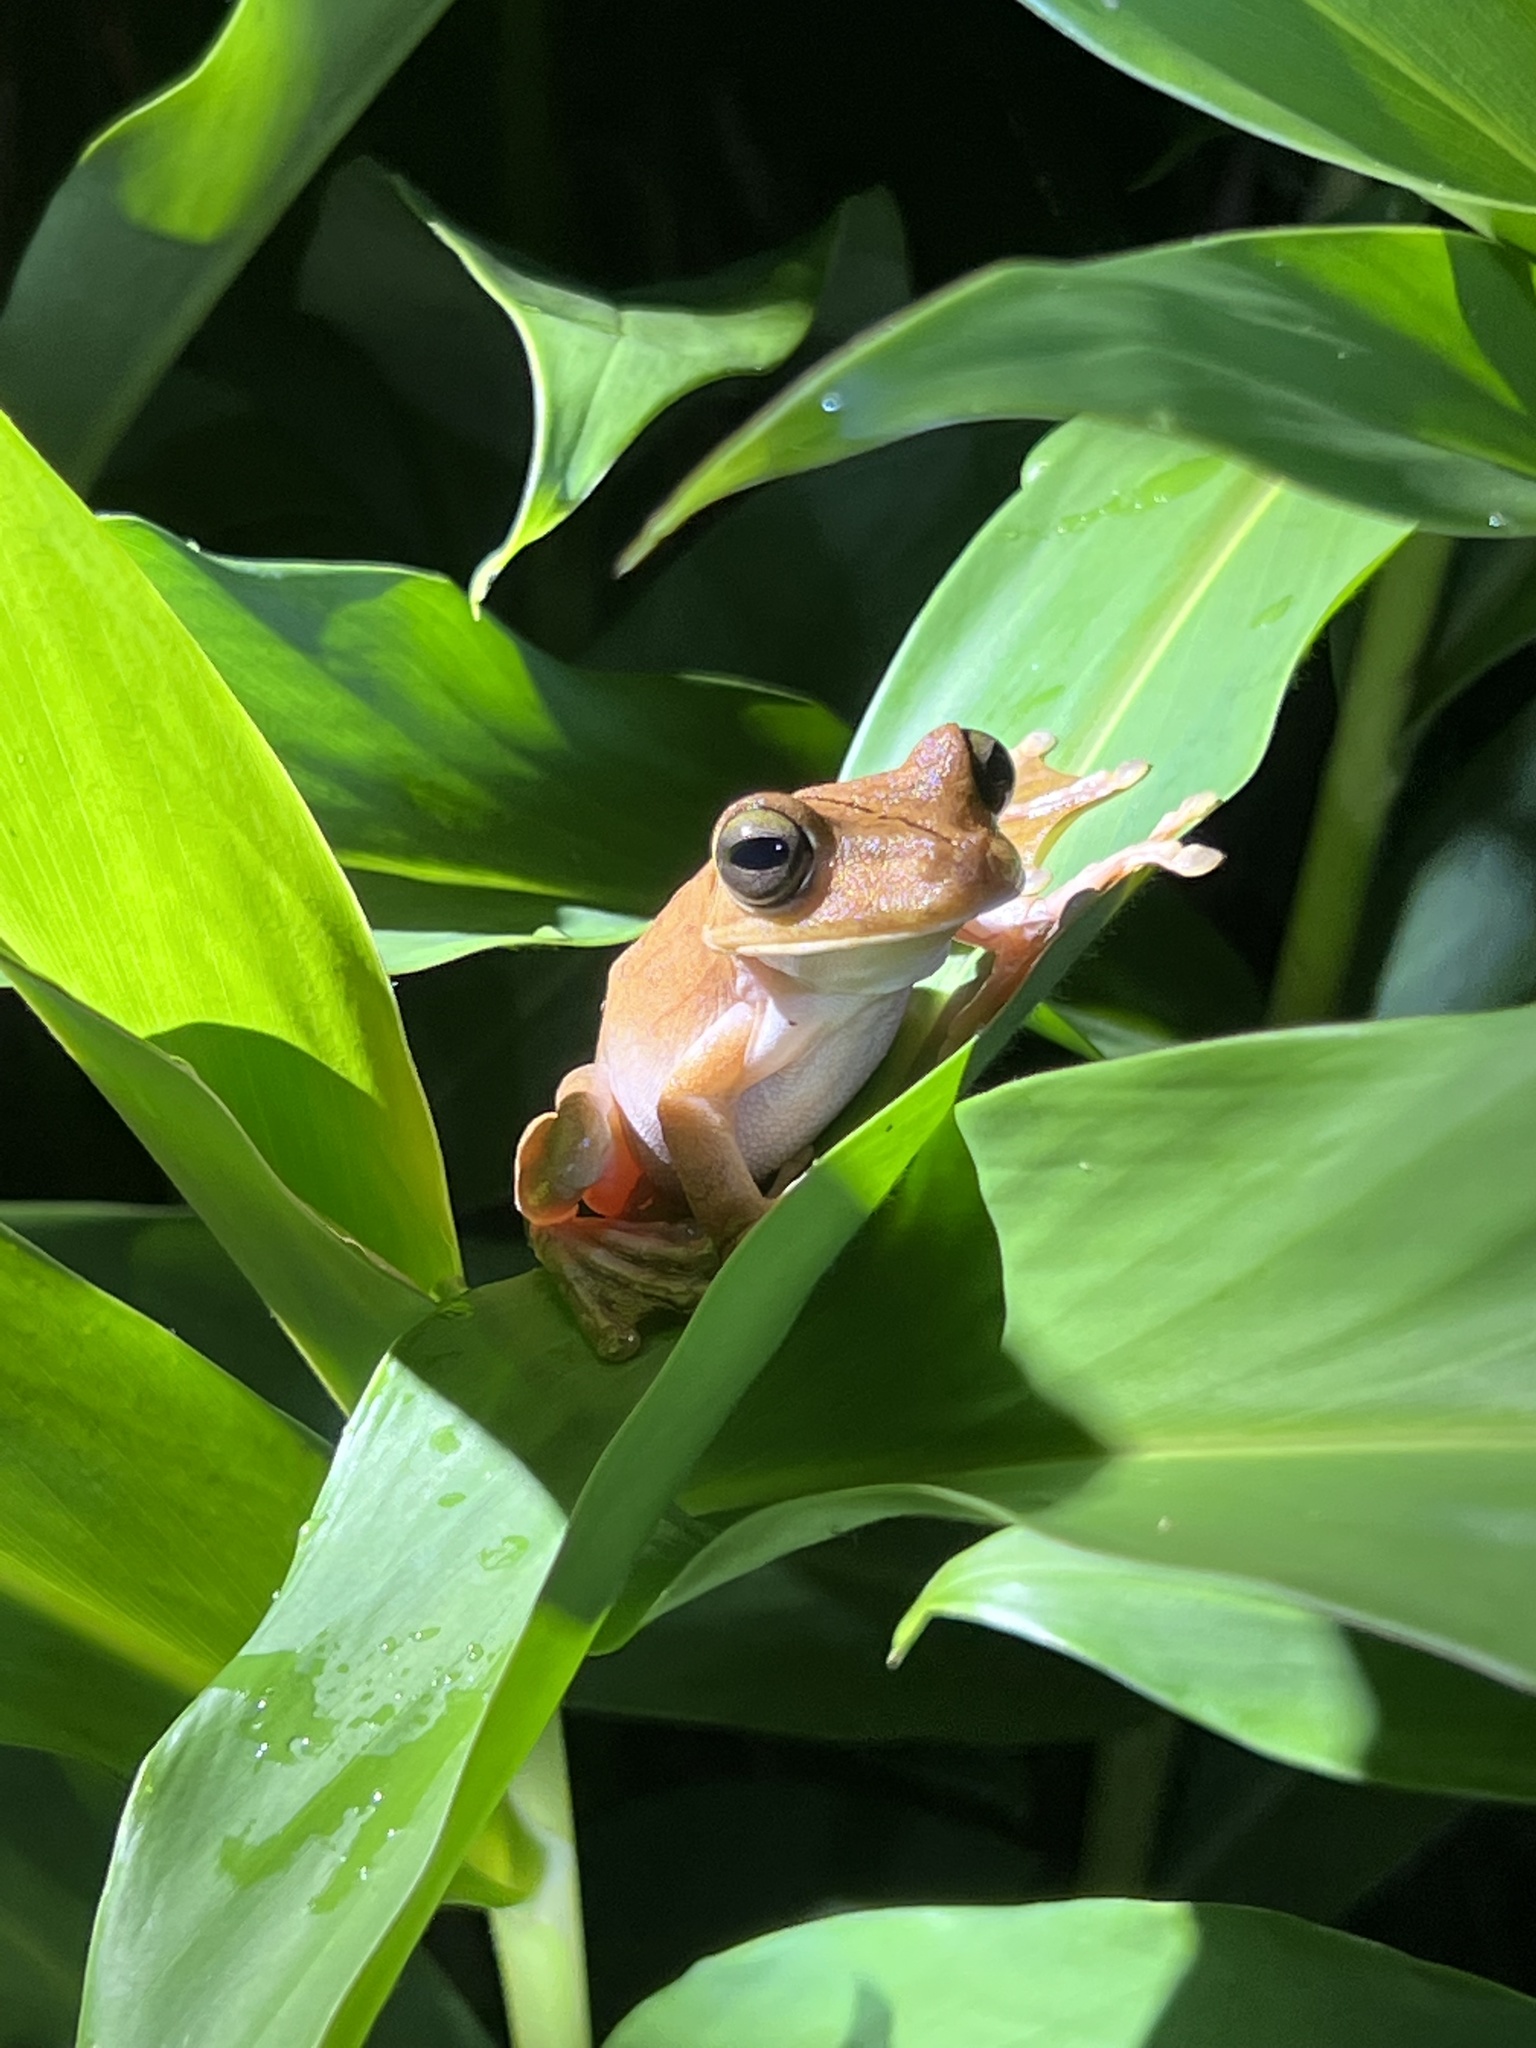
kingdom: Animalia
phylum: Chordata
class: Amphibia
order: Anura
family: Hylidae
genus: Boana
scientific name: Boana rosenbergi
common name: Rosenberg´s gladiator treefrog
